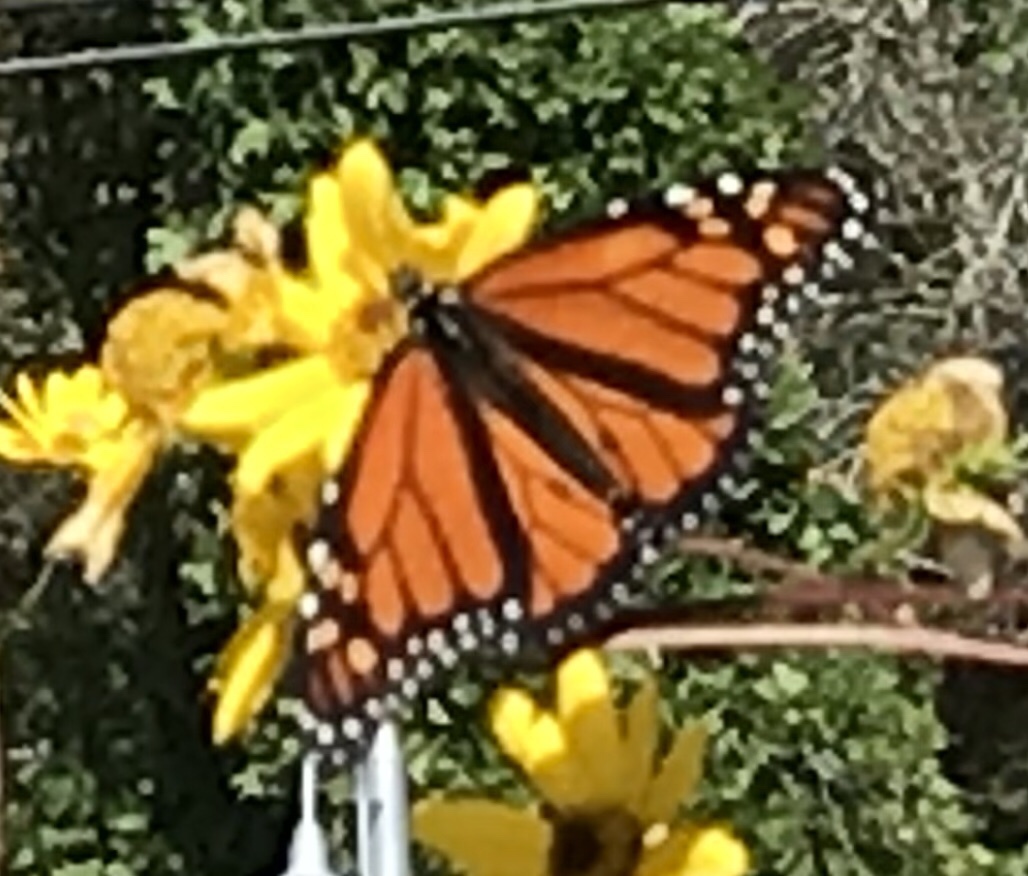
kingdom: Animalia
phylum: Arthropoda
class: Insecta
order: Lepidoptera
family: Nymphalidae
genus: Danaus
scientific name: Danaus plexippus
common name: Monarch
